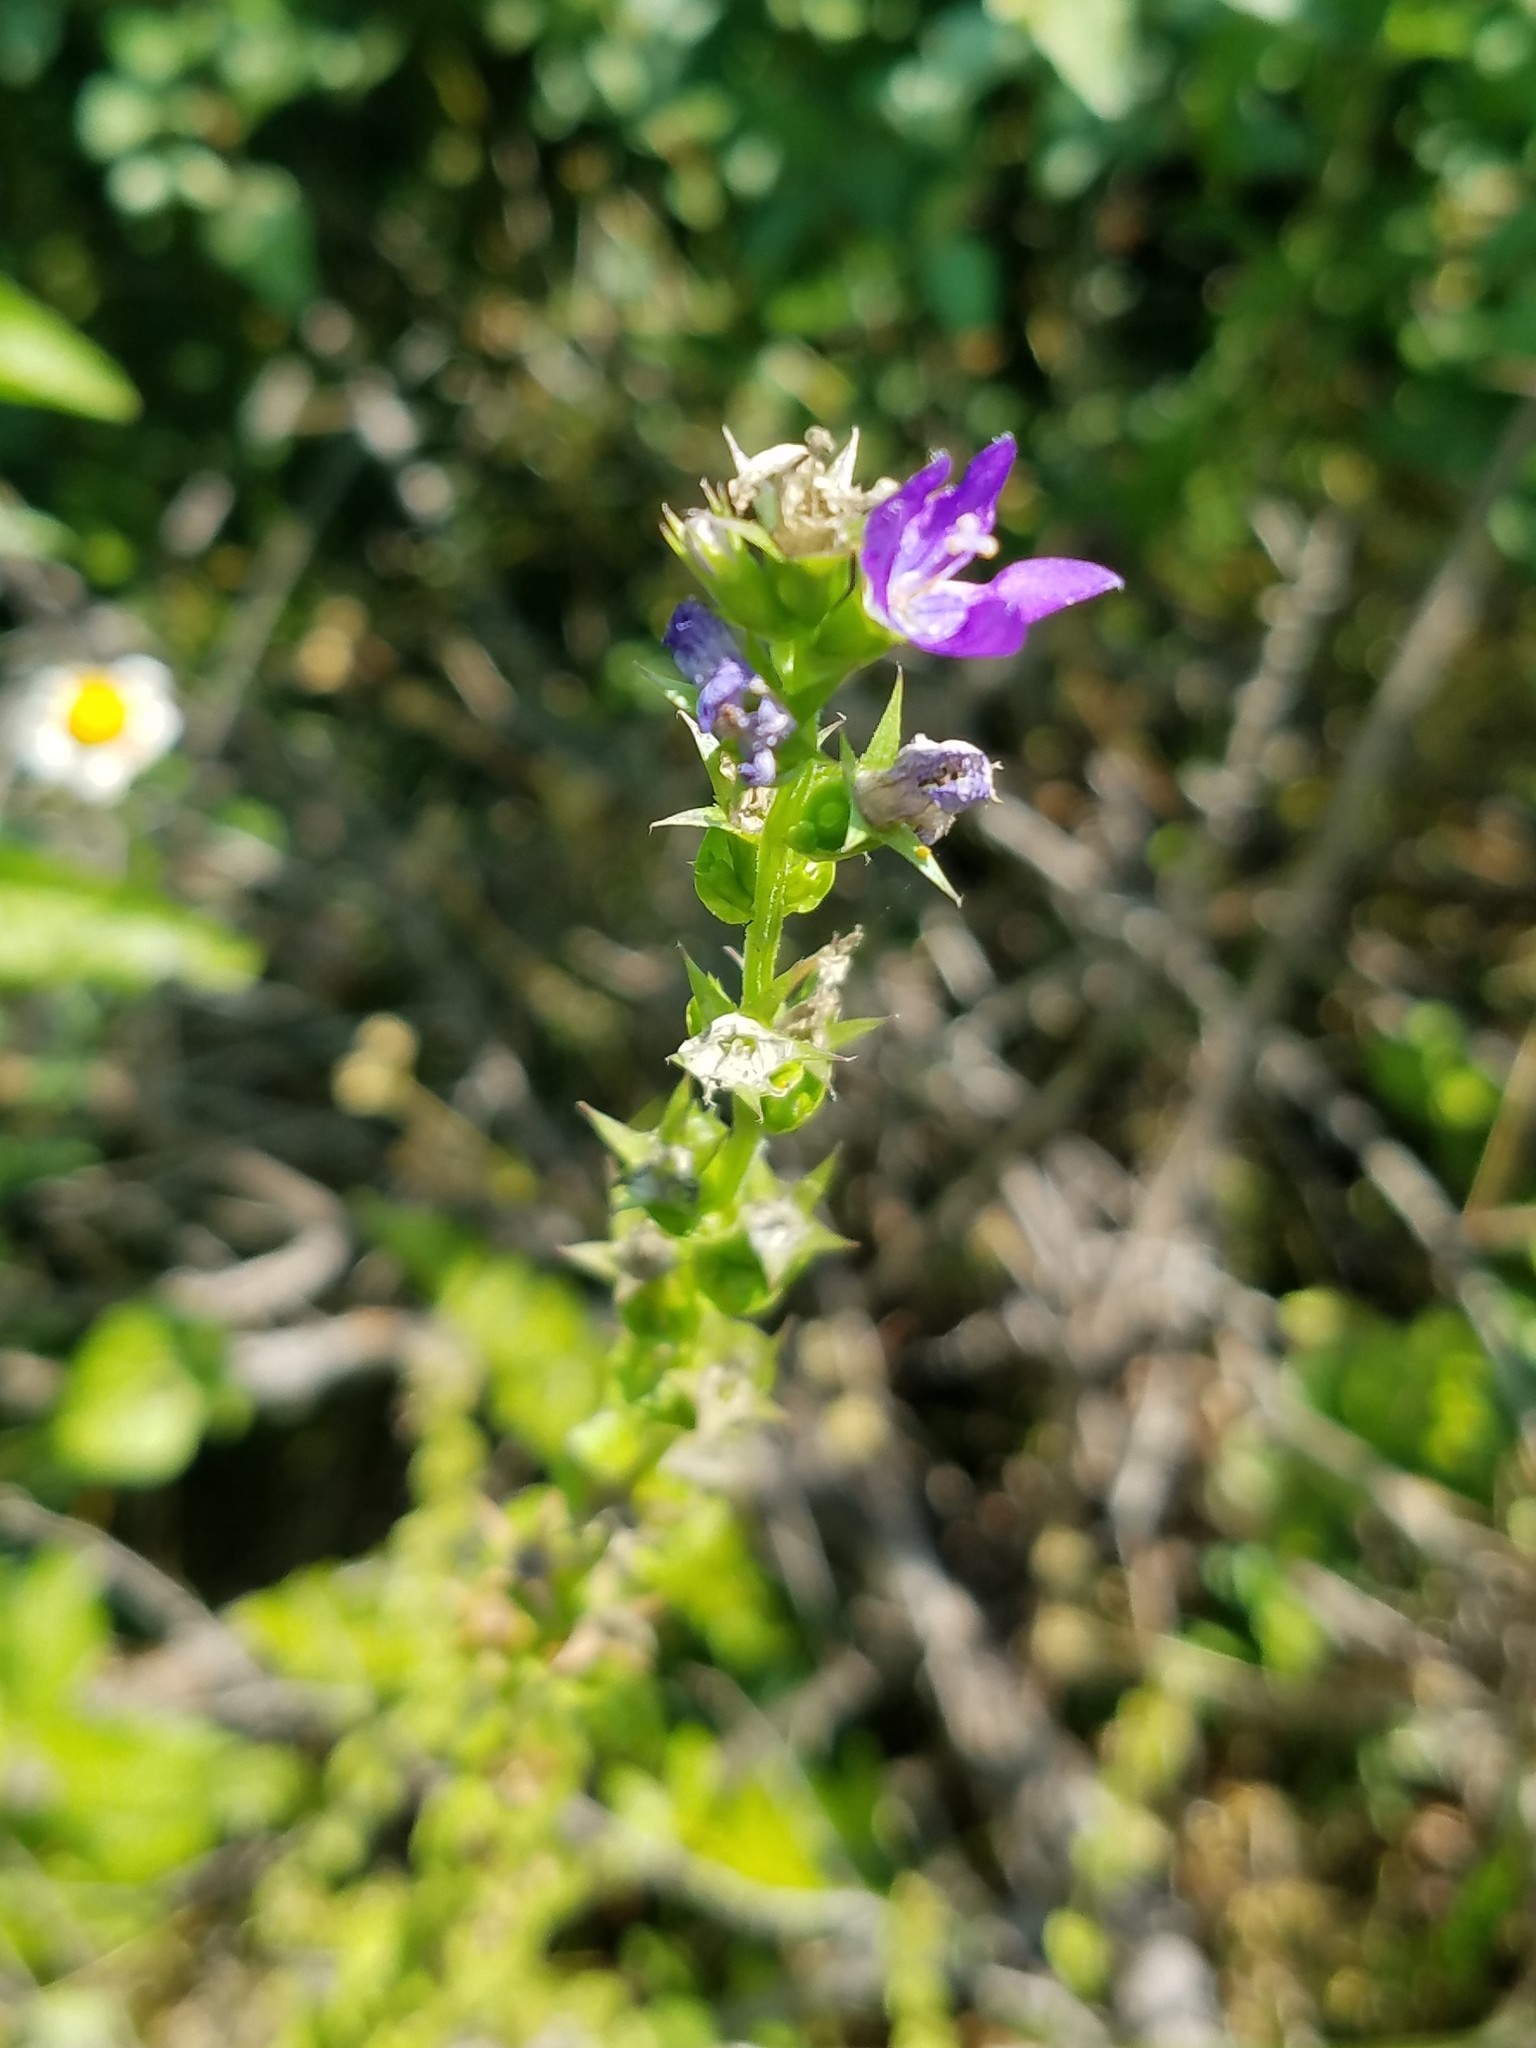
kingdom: Plantae
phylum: Tracheophyta
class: Magnoliopsida
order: Asterales
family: Campanulaceae
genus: Triodanis
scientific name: Triodanis perfoliata
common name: Clasping venus' looking-glass
